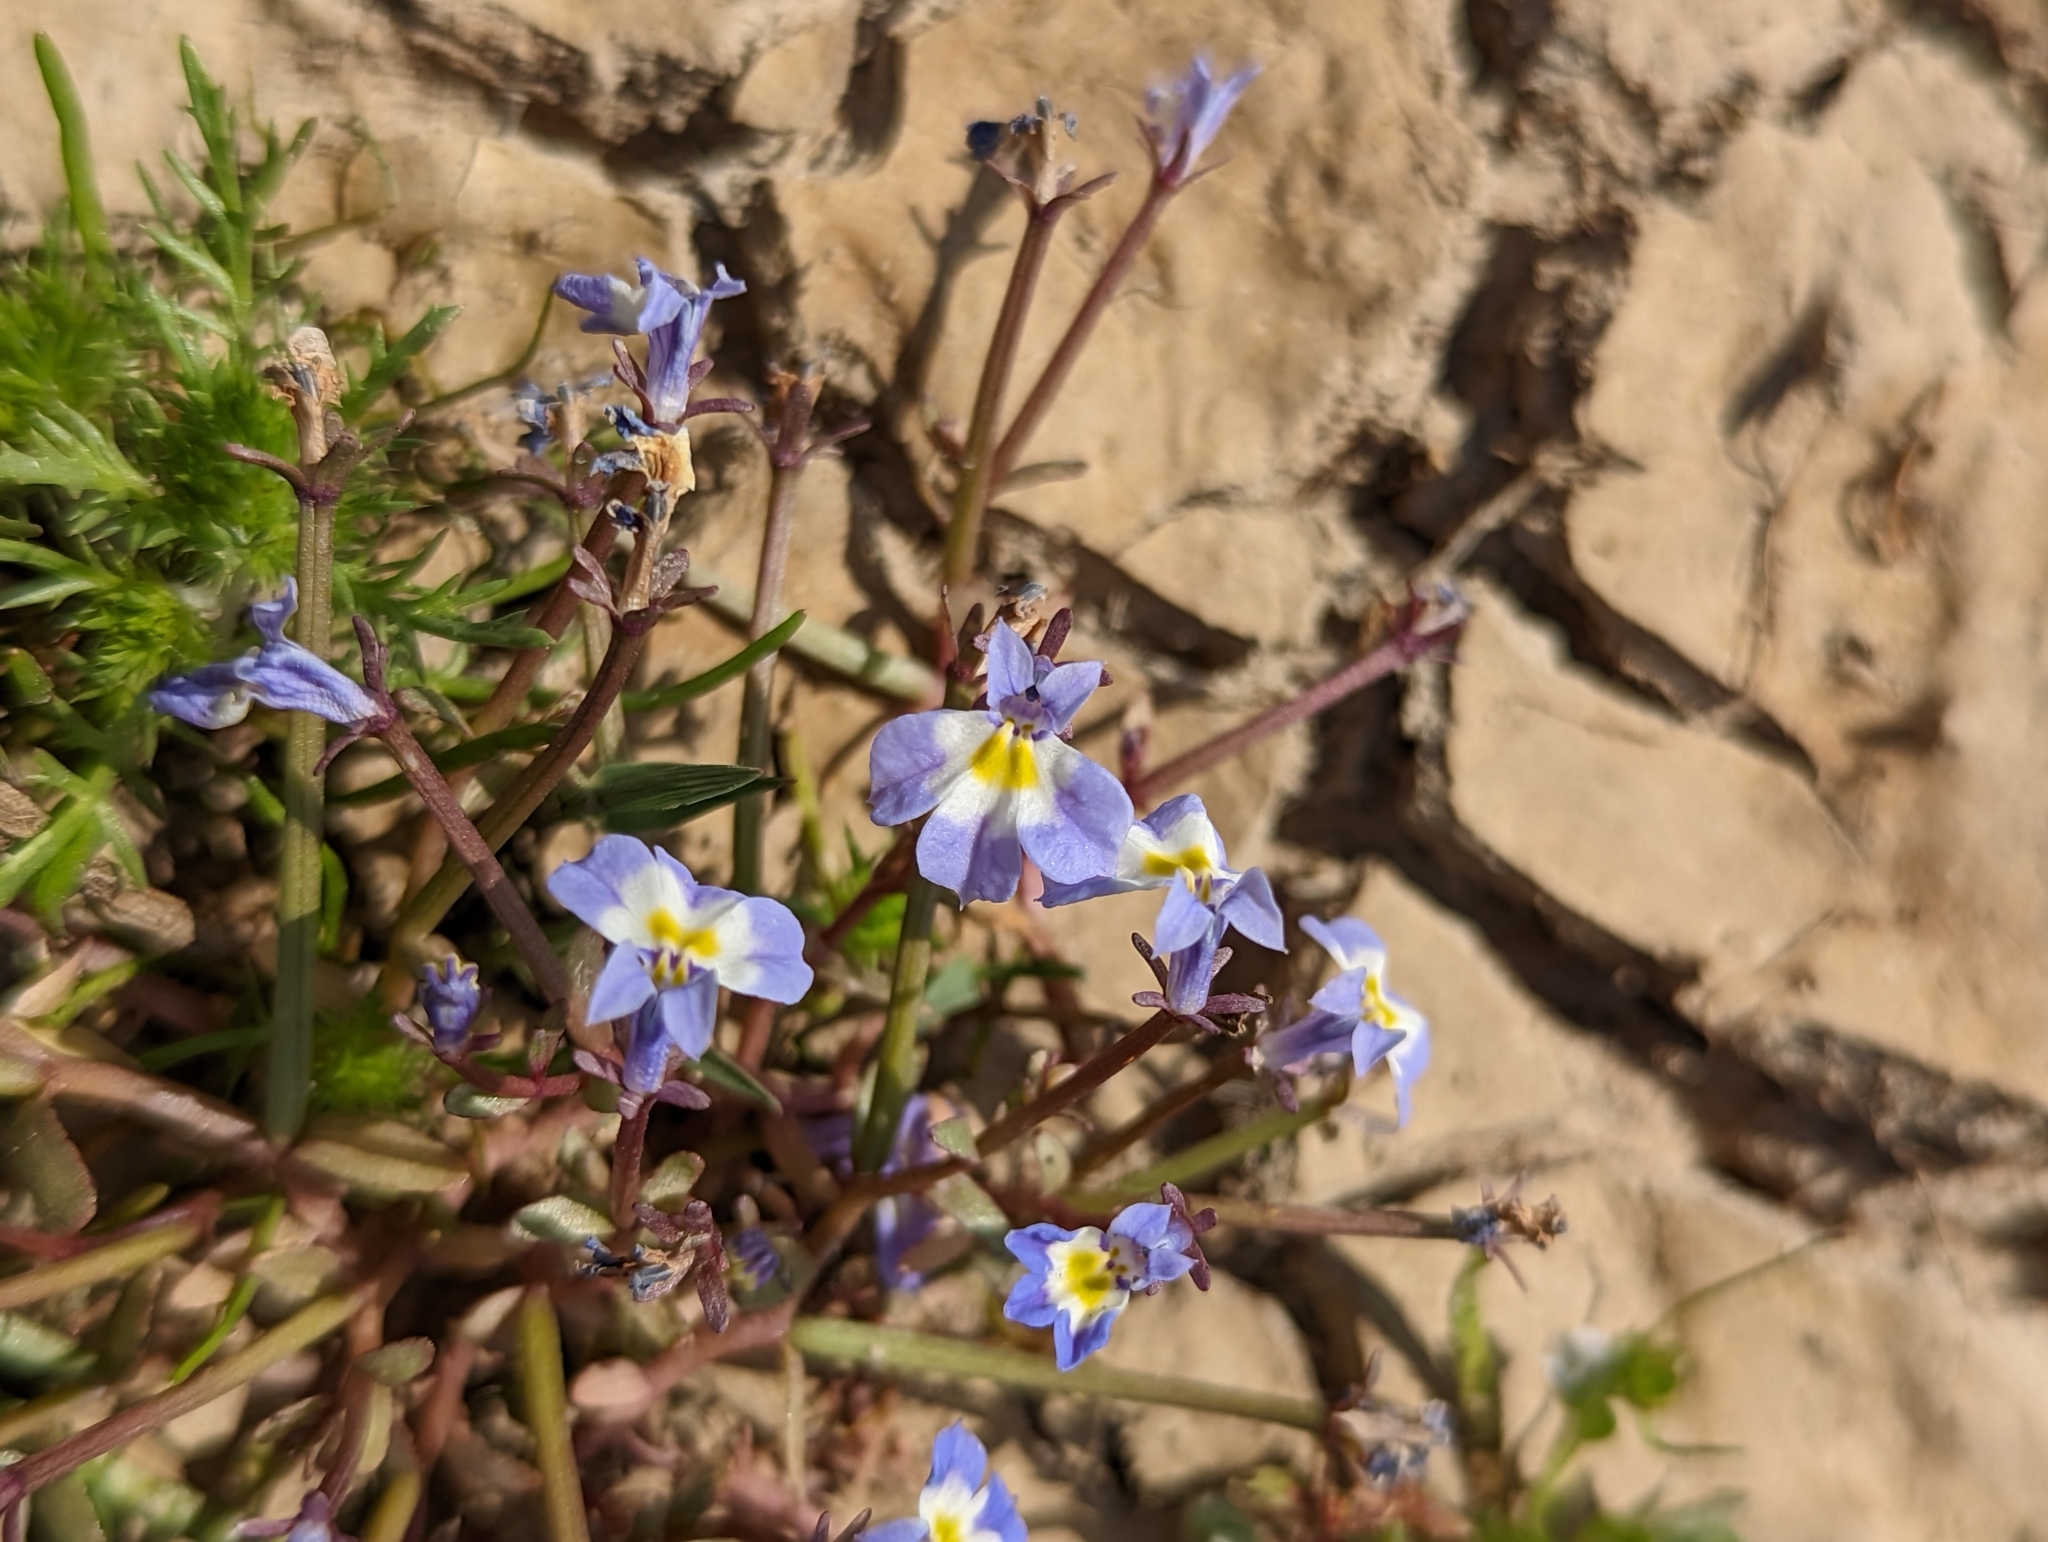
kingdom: Plantae
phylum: Tracheophyta
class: Magnoliopsida
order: Asterales
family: Campanulaceae
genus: Downingia
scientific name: Downingia bella
